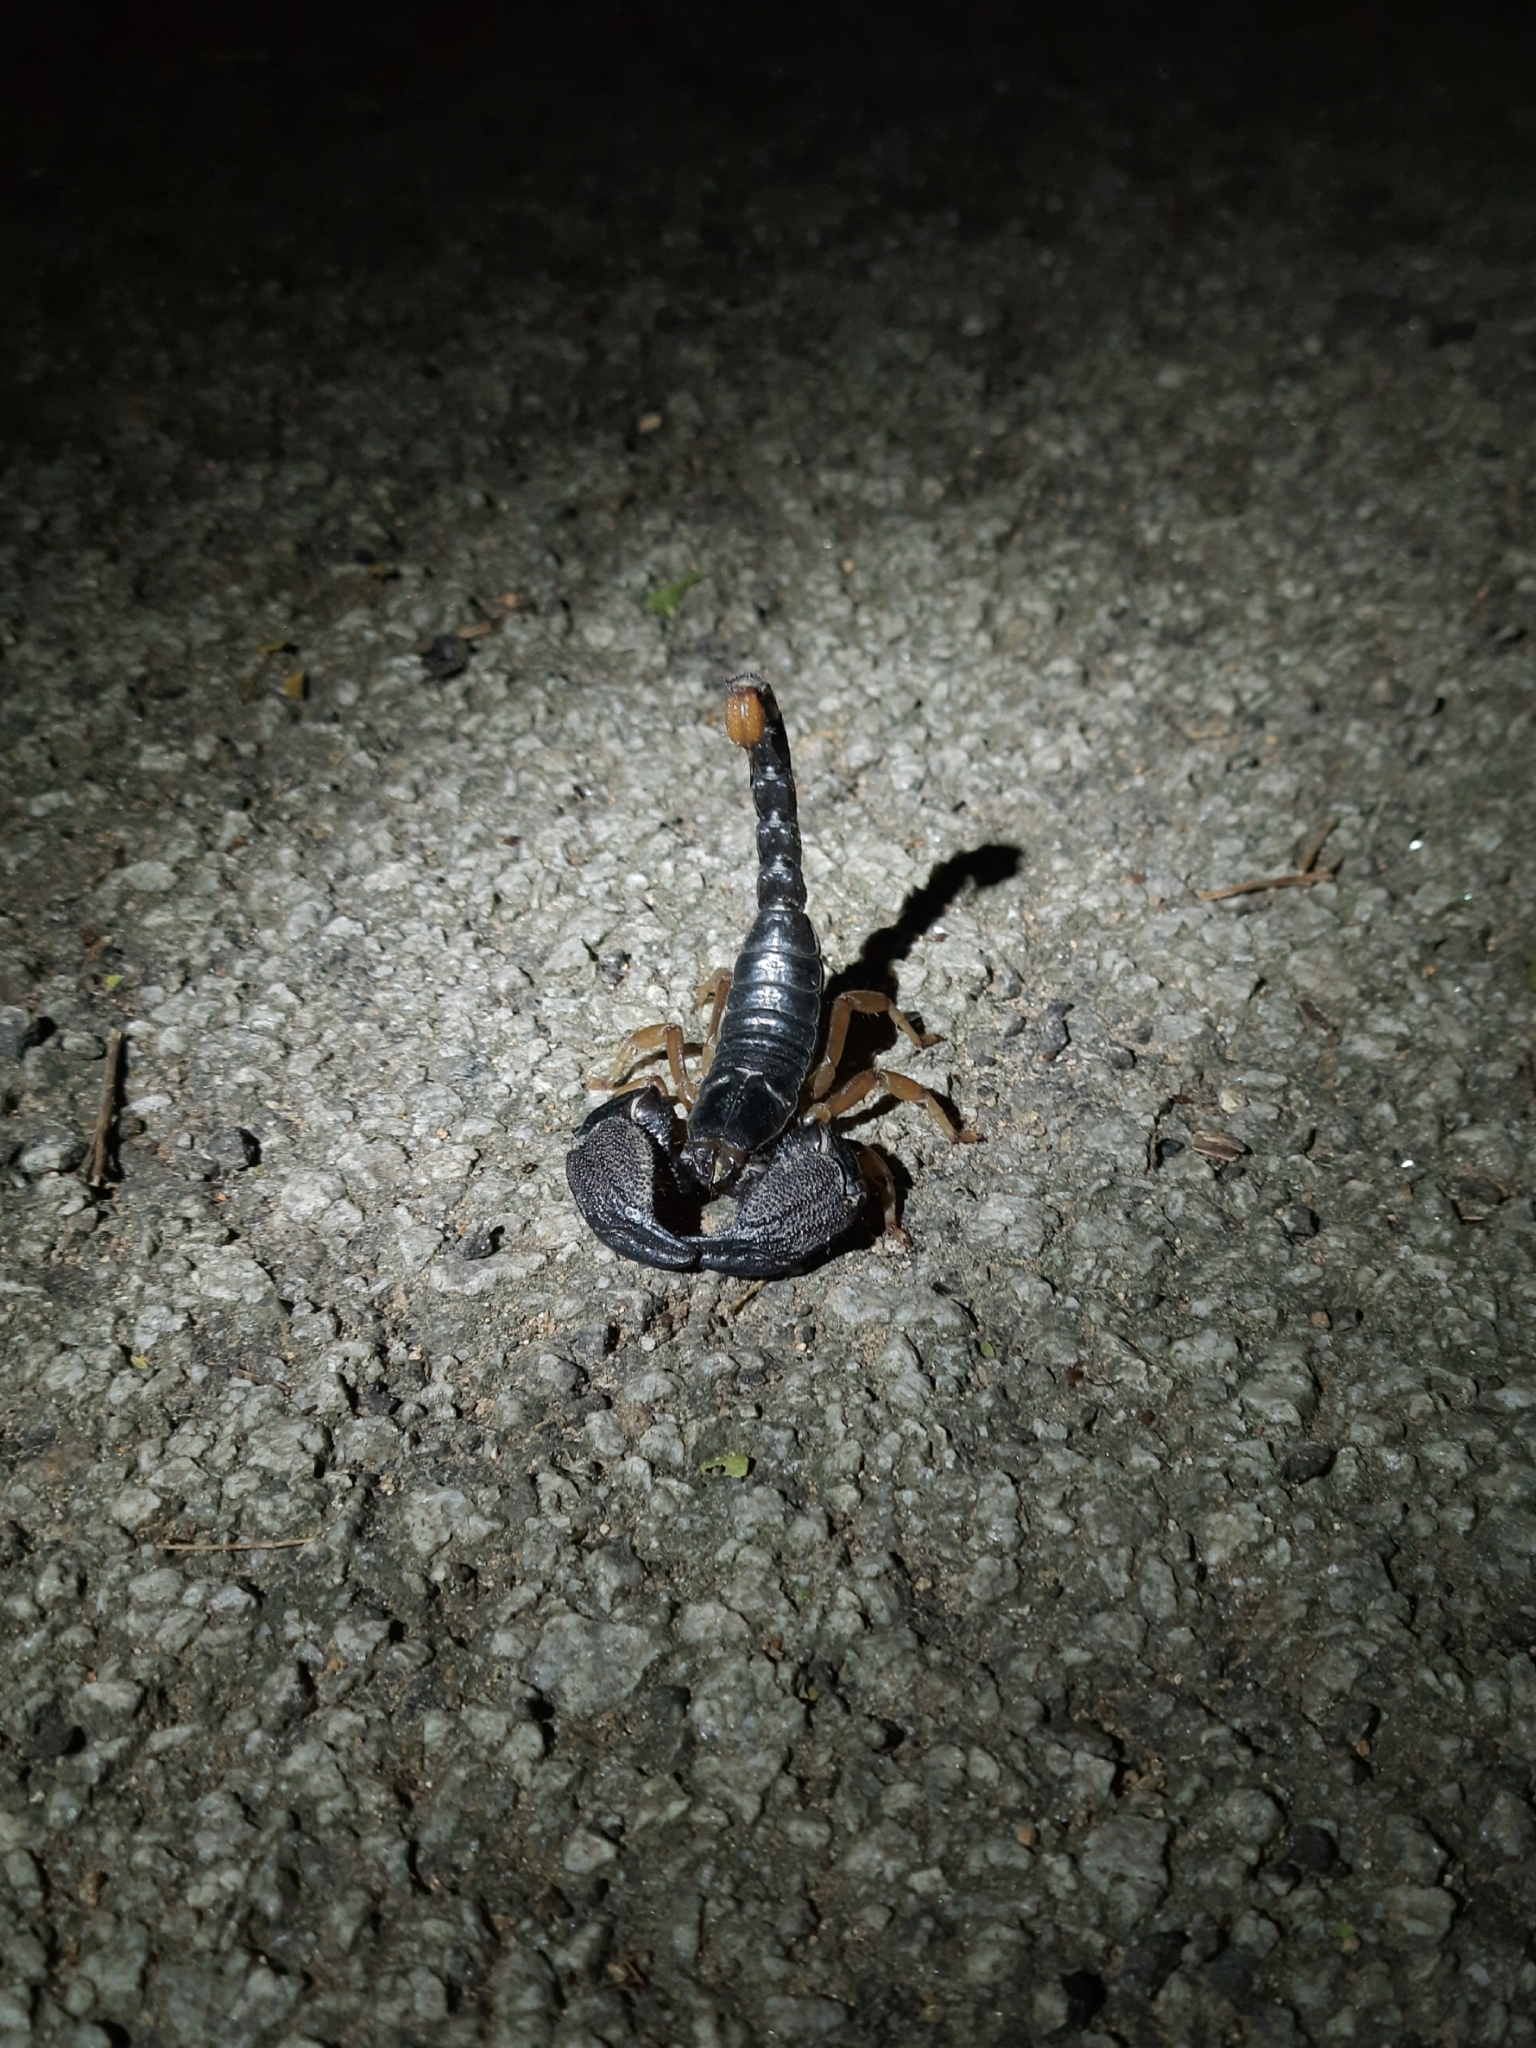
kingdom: Animalia
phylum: Arthropoda
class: Arachnida
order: Scorpiones
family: Scorpionidae
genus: Chersonesometrus
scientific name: Chersonesometrus madraspatensis
